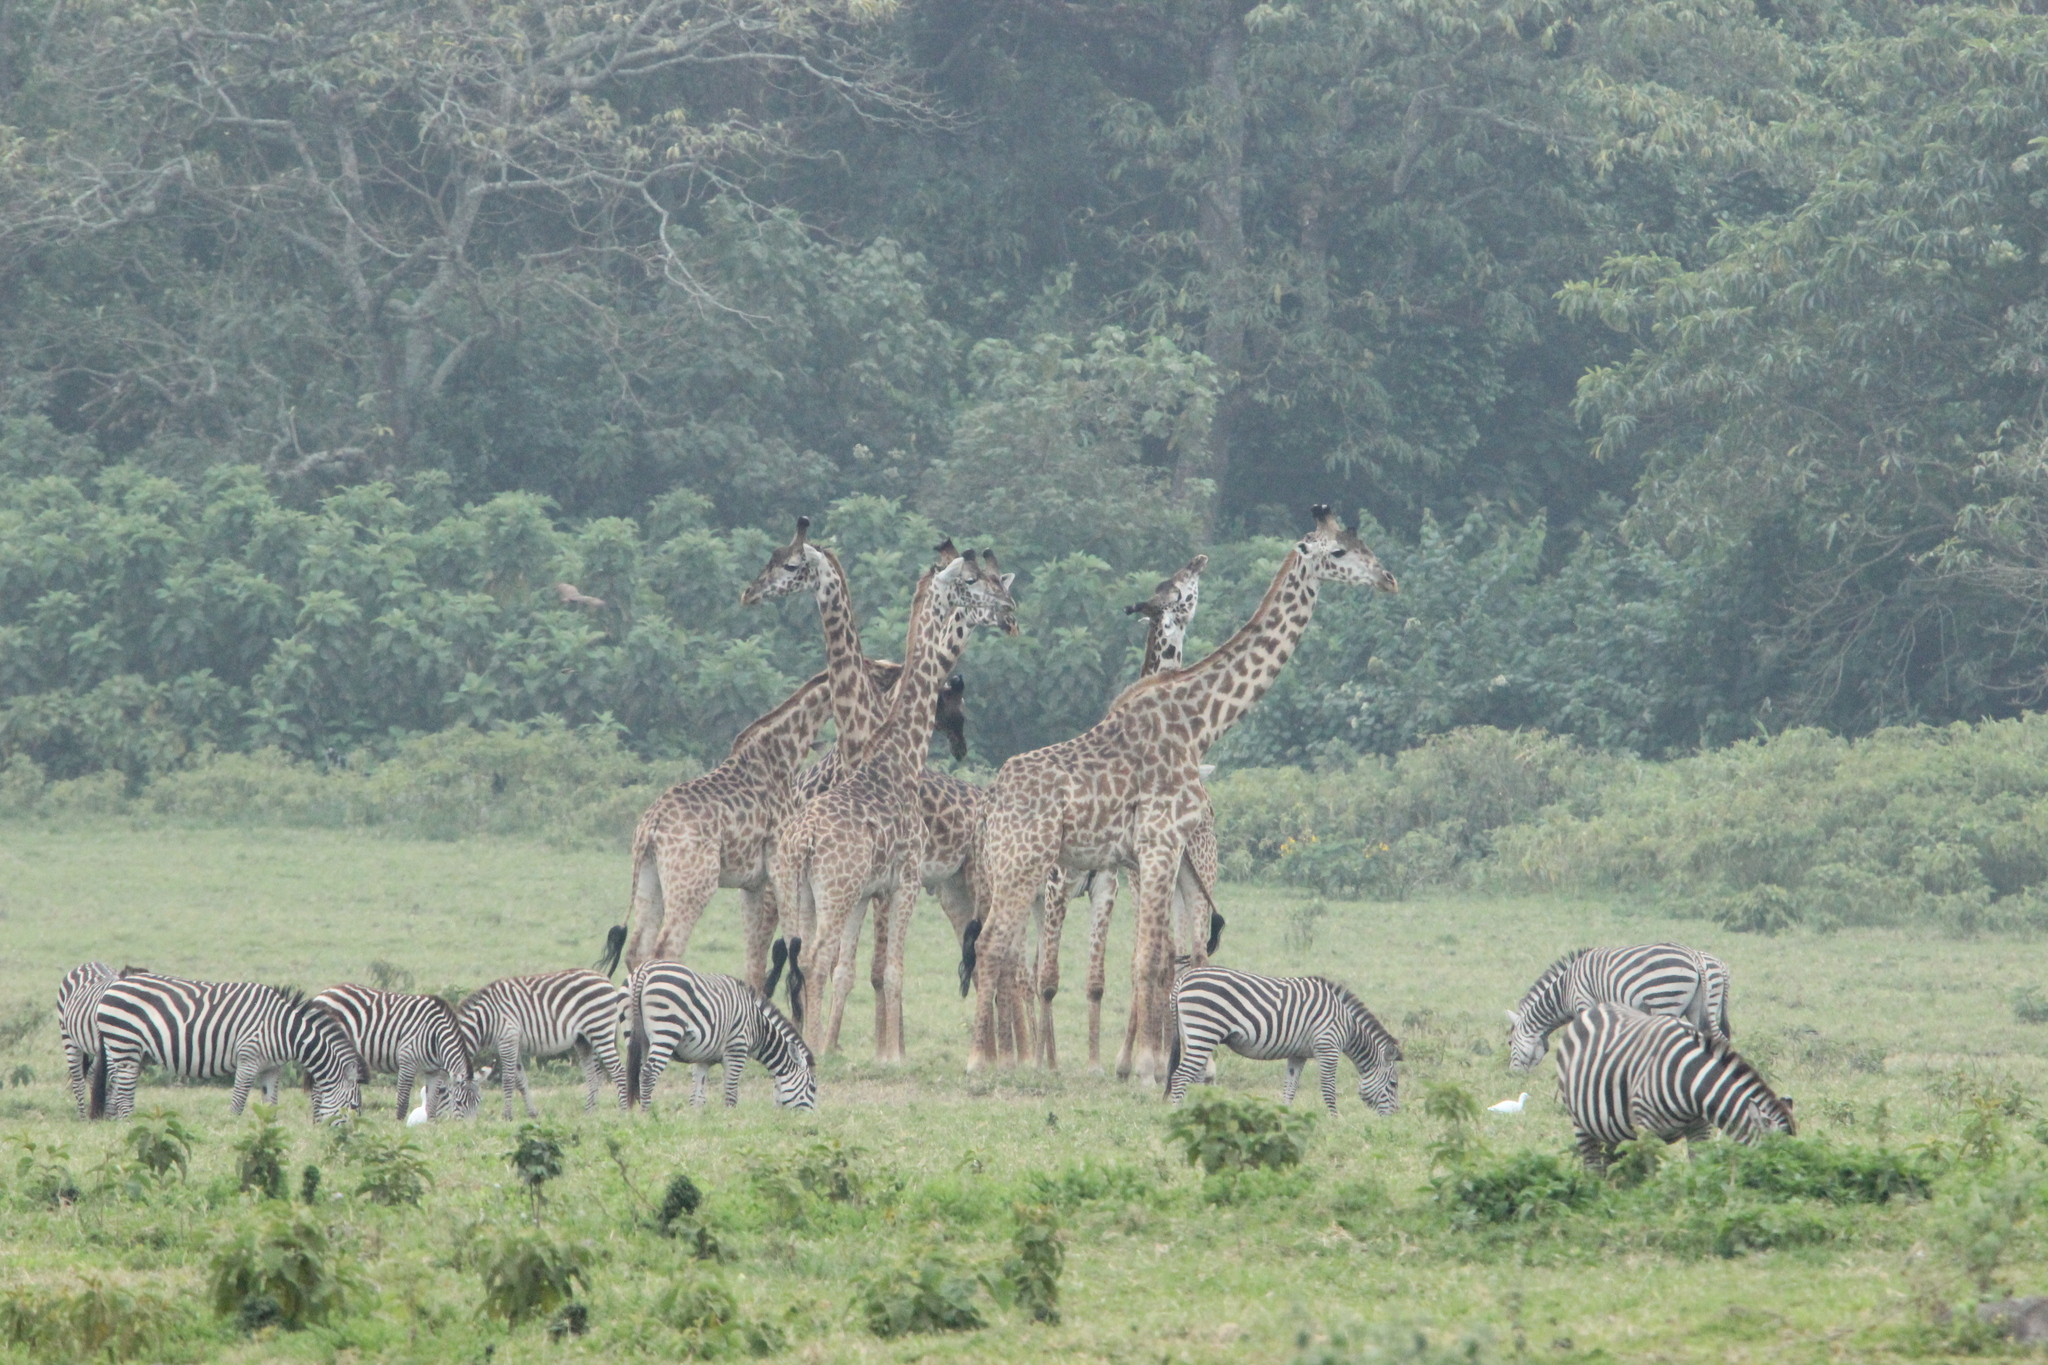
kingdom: Animalia
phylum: Chordata
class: Mammalia
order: Artiodactyla
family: Giraffidae
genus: Giraffa
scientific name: Giraffa tippelskirchi
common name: Masai giraffe
